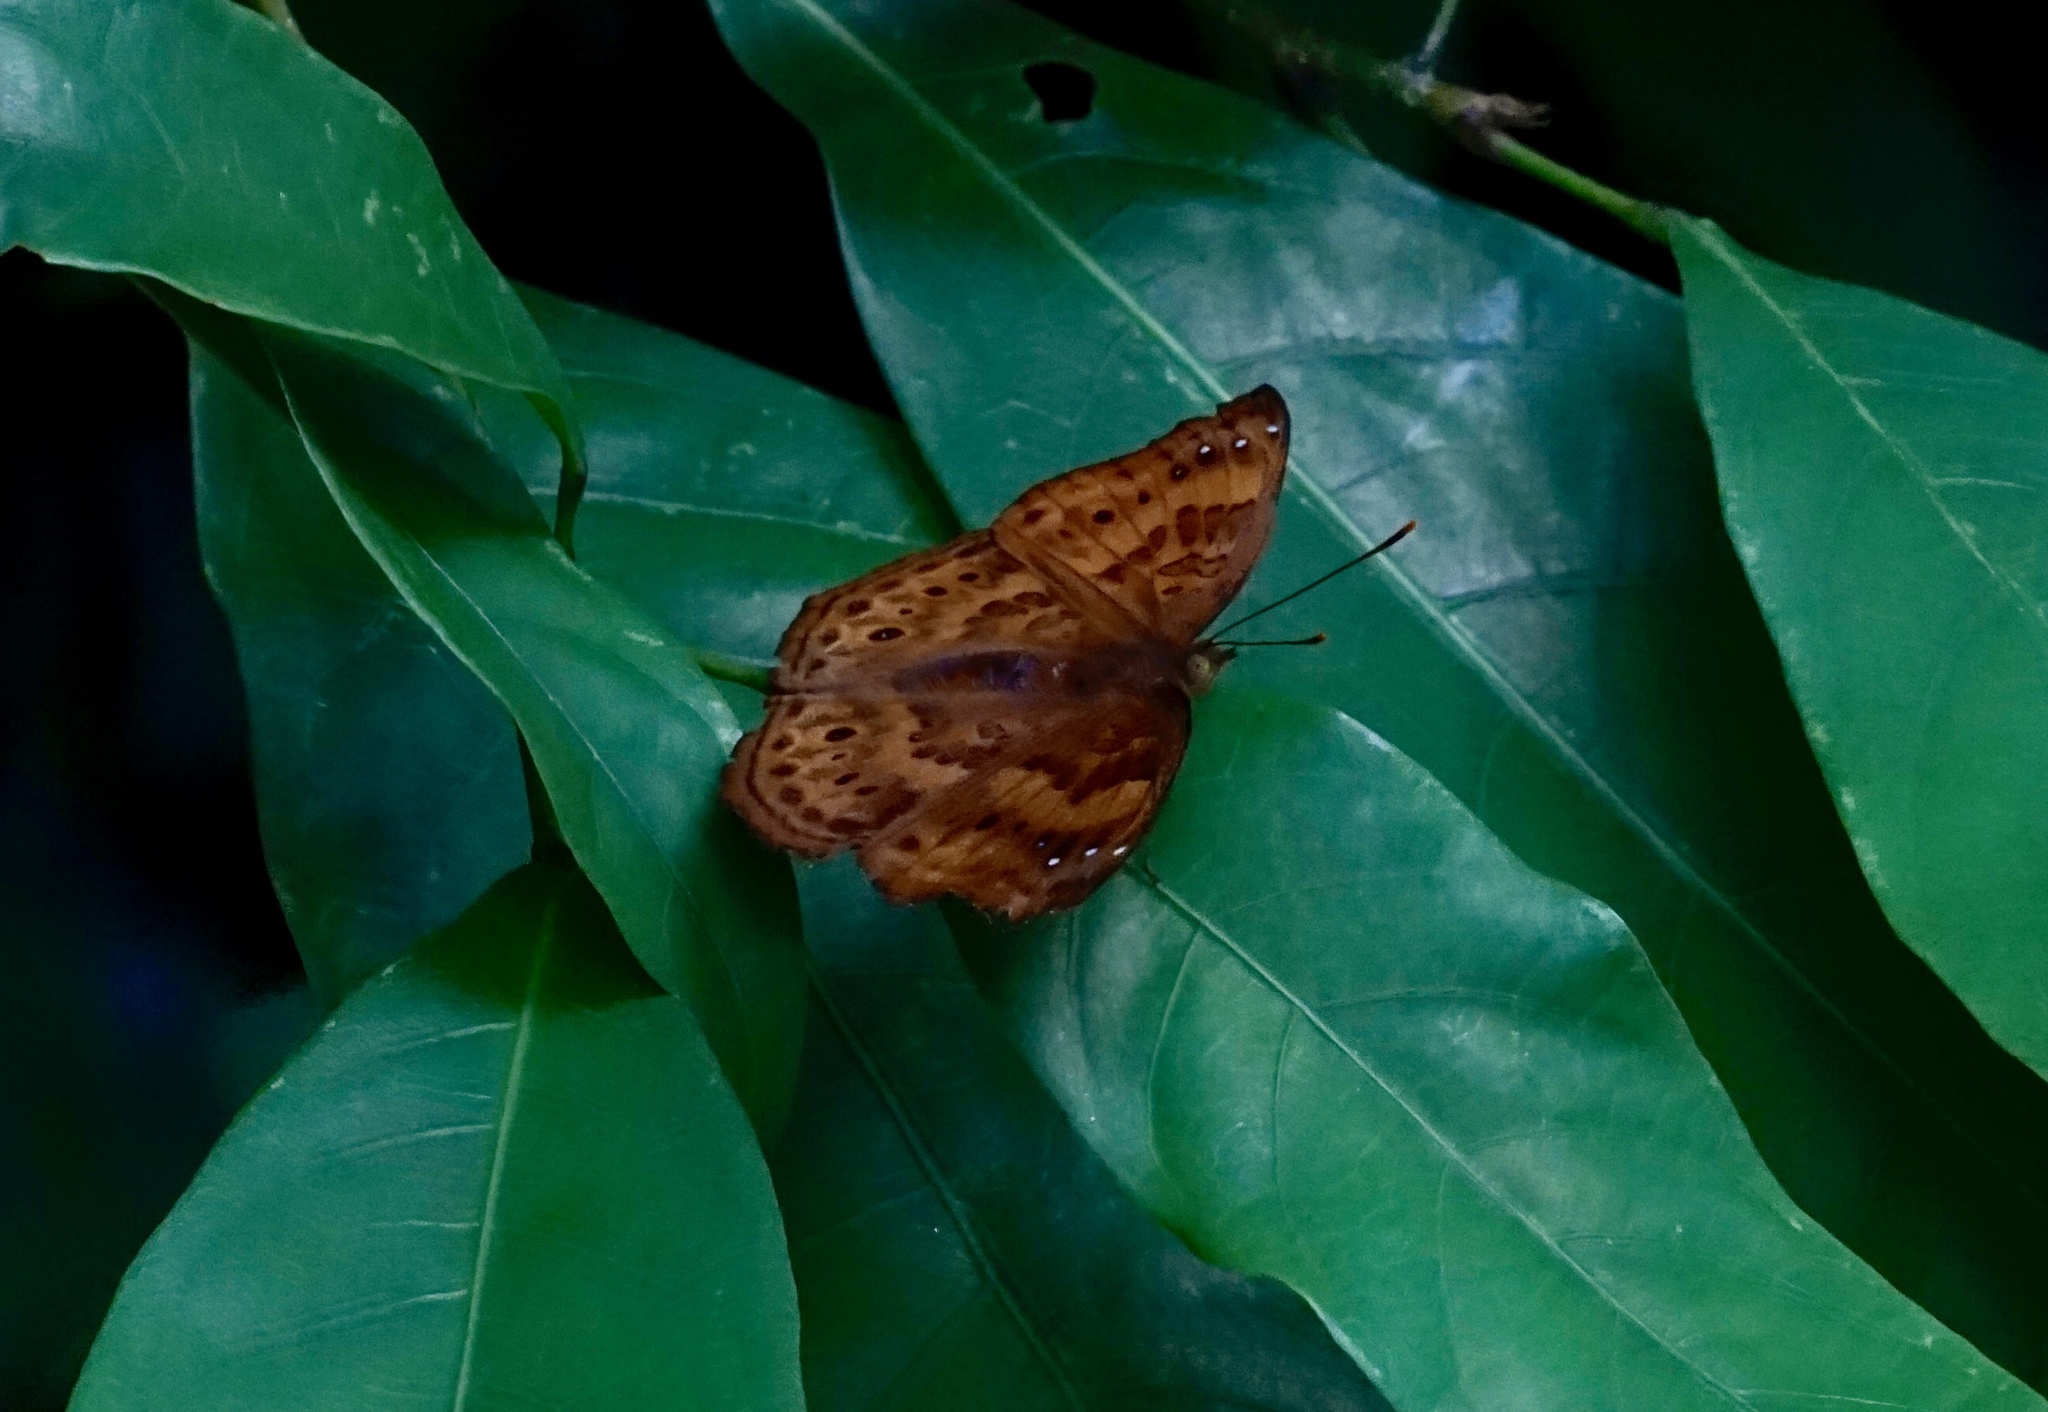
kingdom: Animalia
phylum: Arthropoda
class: Insecta
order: Lepidoptera
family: Nymphalidae
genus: Apatura
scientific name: Apatura Rohana spec
